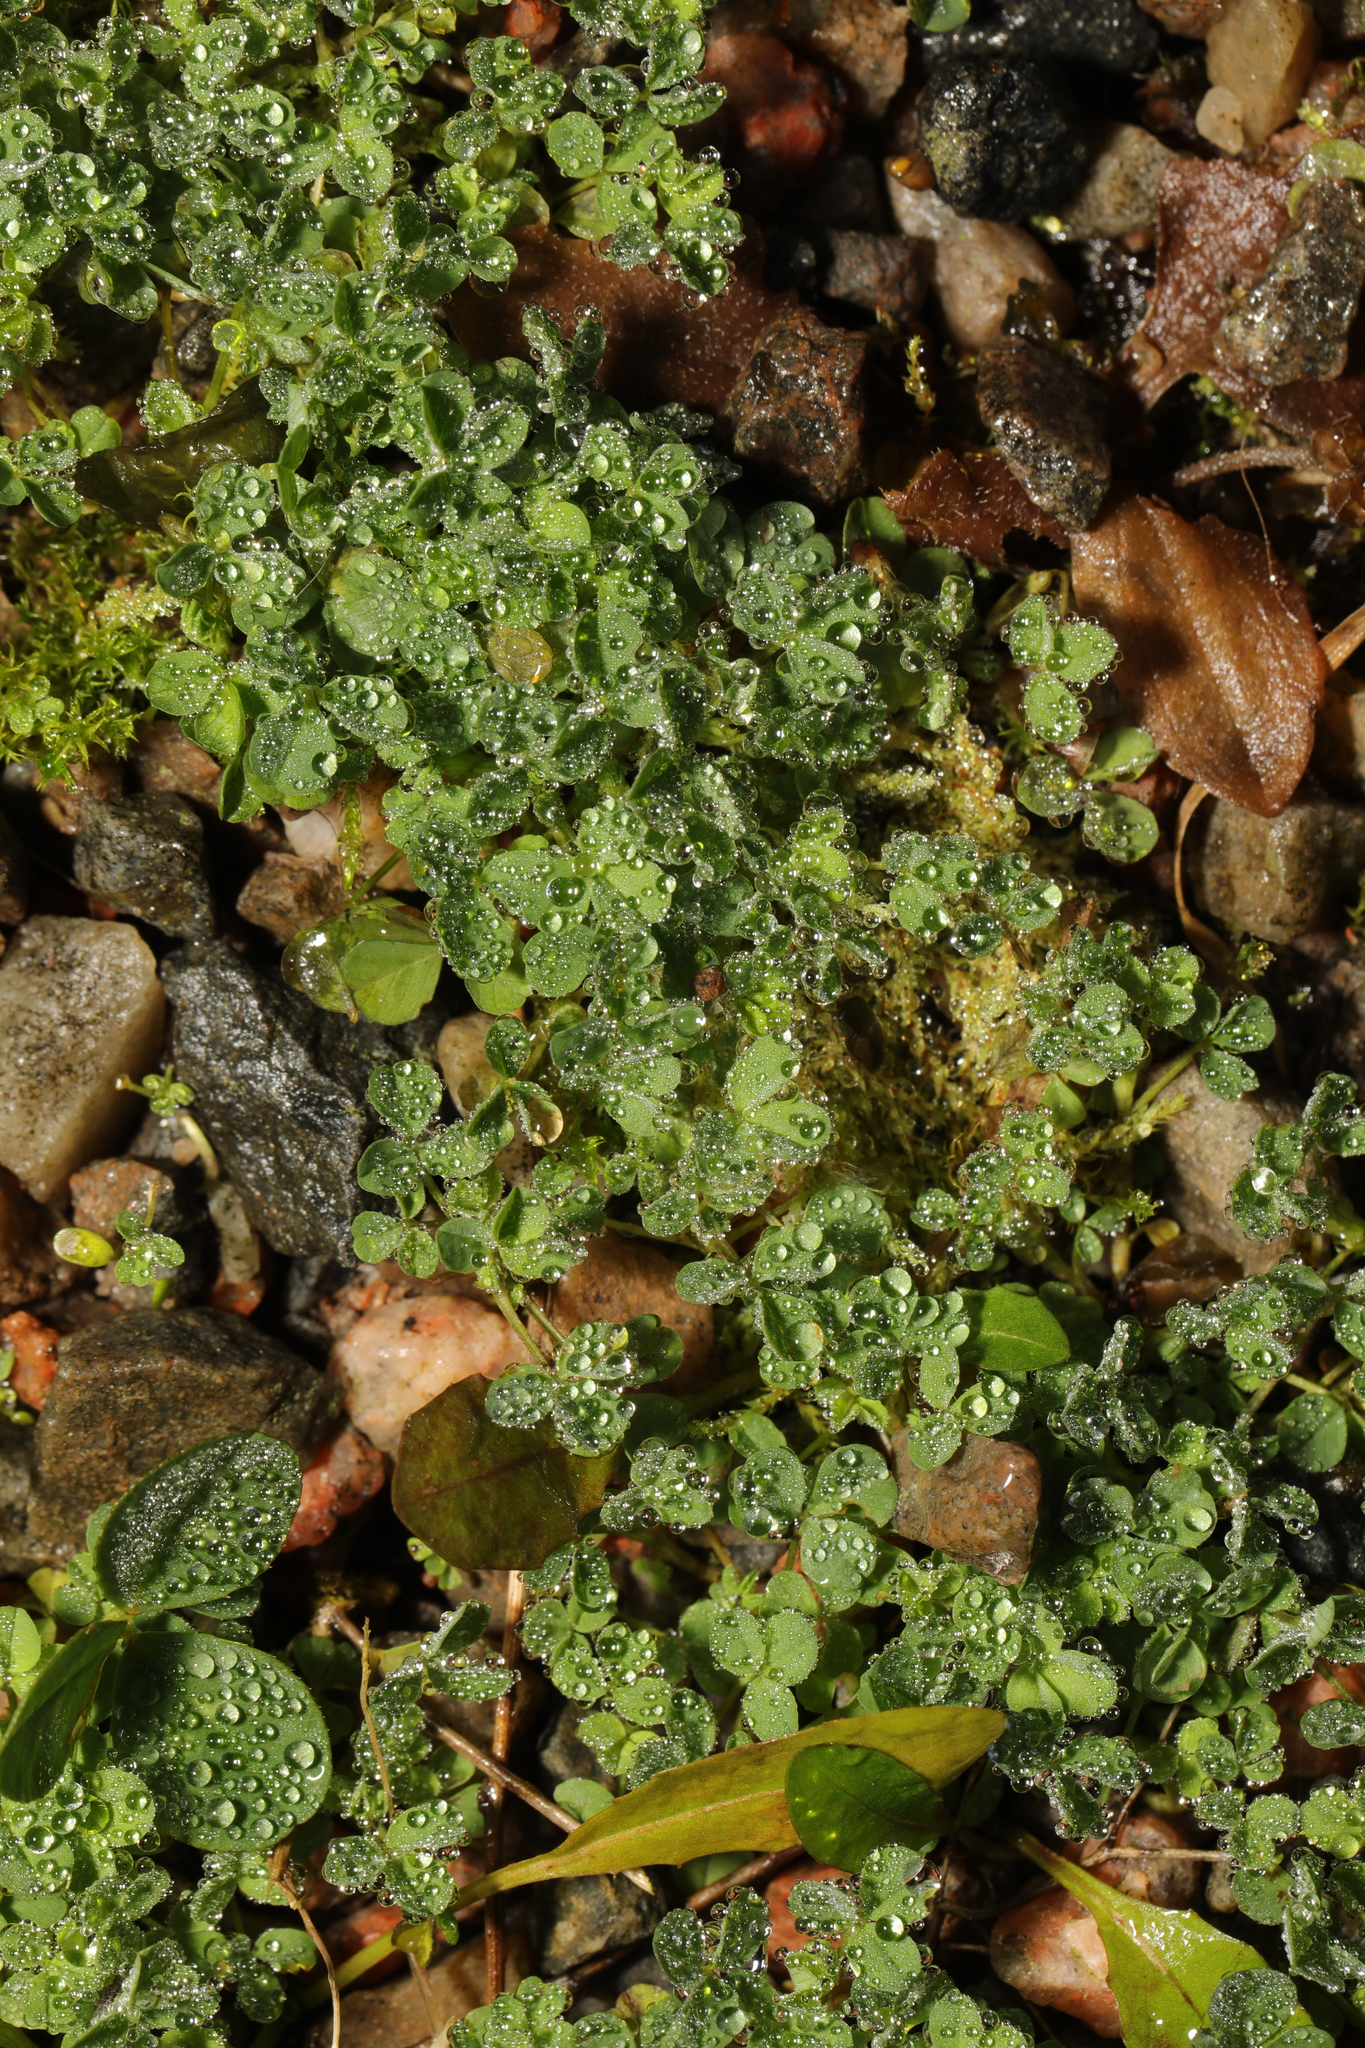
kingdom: Plantae
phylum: Tracheophyta
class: Magnoliopsida
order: Fabales
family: Fabaceae
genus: Trifolium
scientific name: Trifolium dubium
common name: Suckling clover
